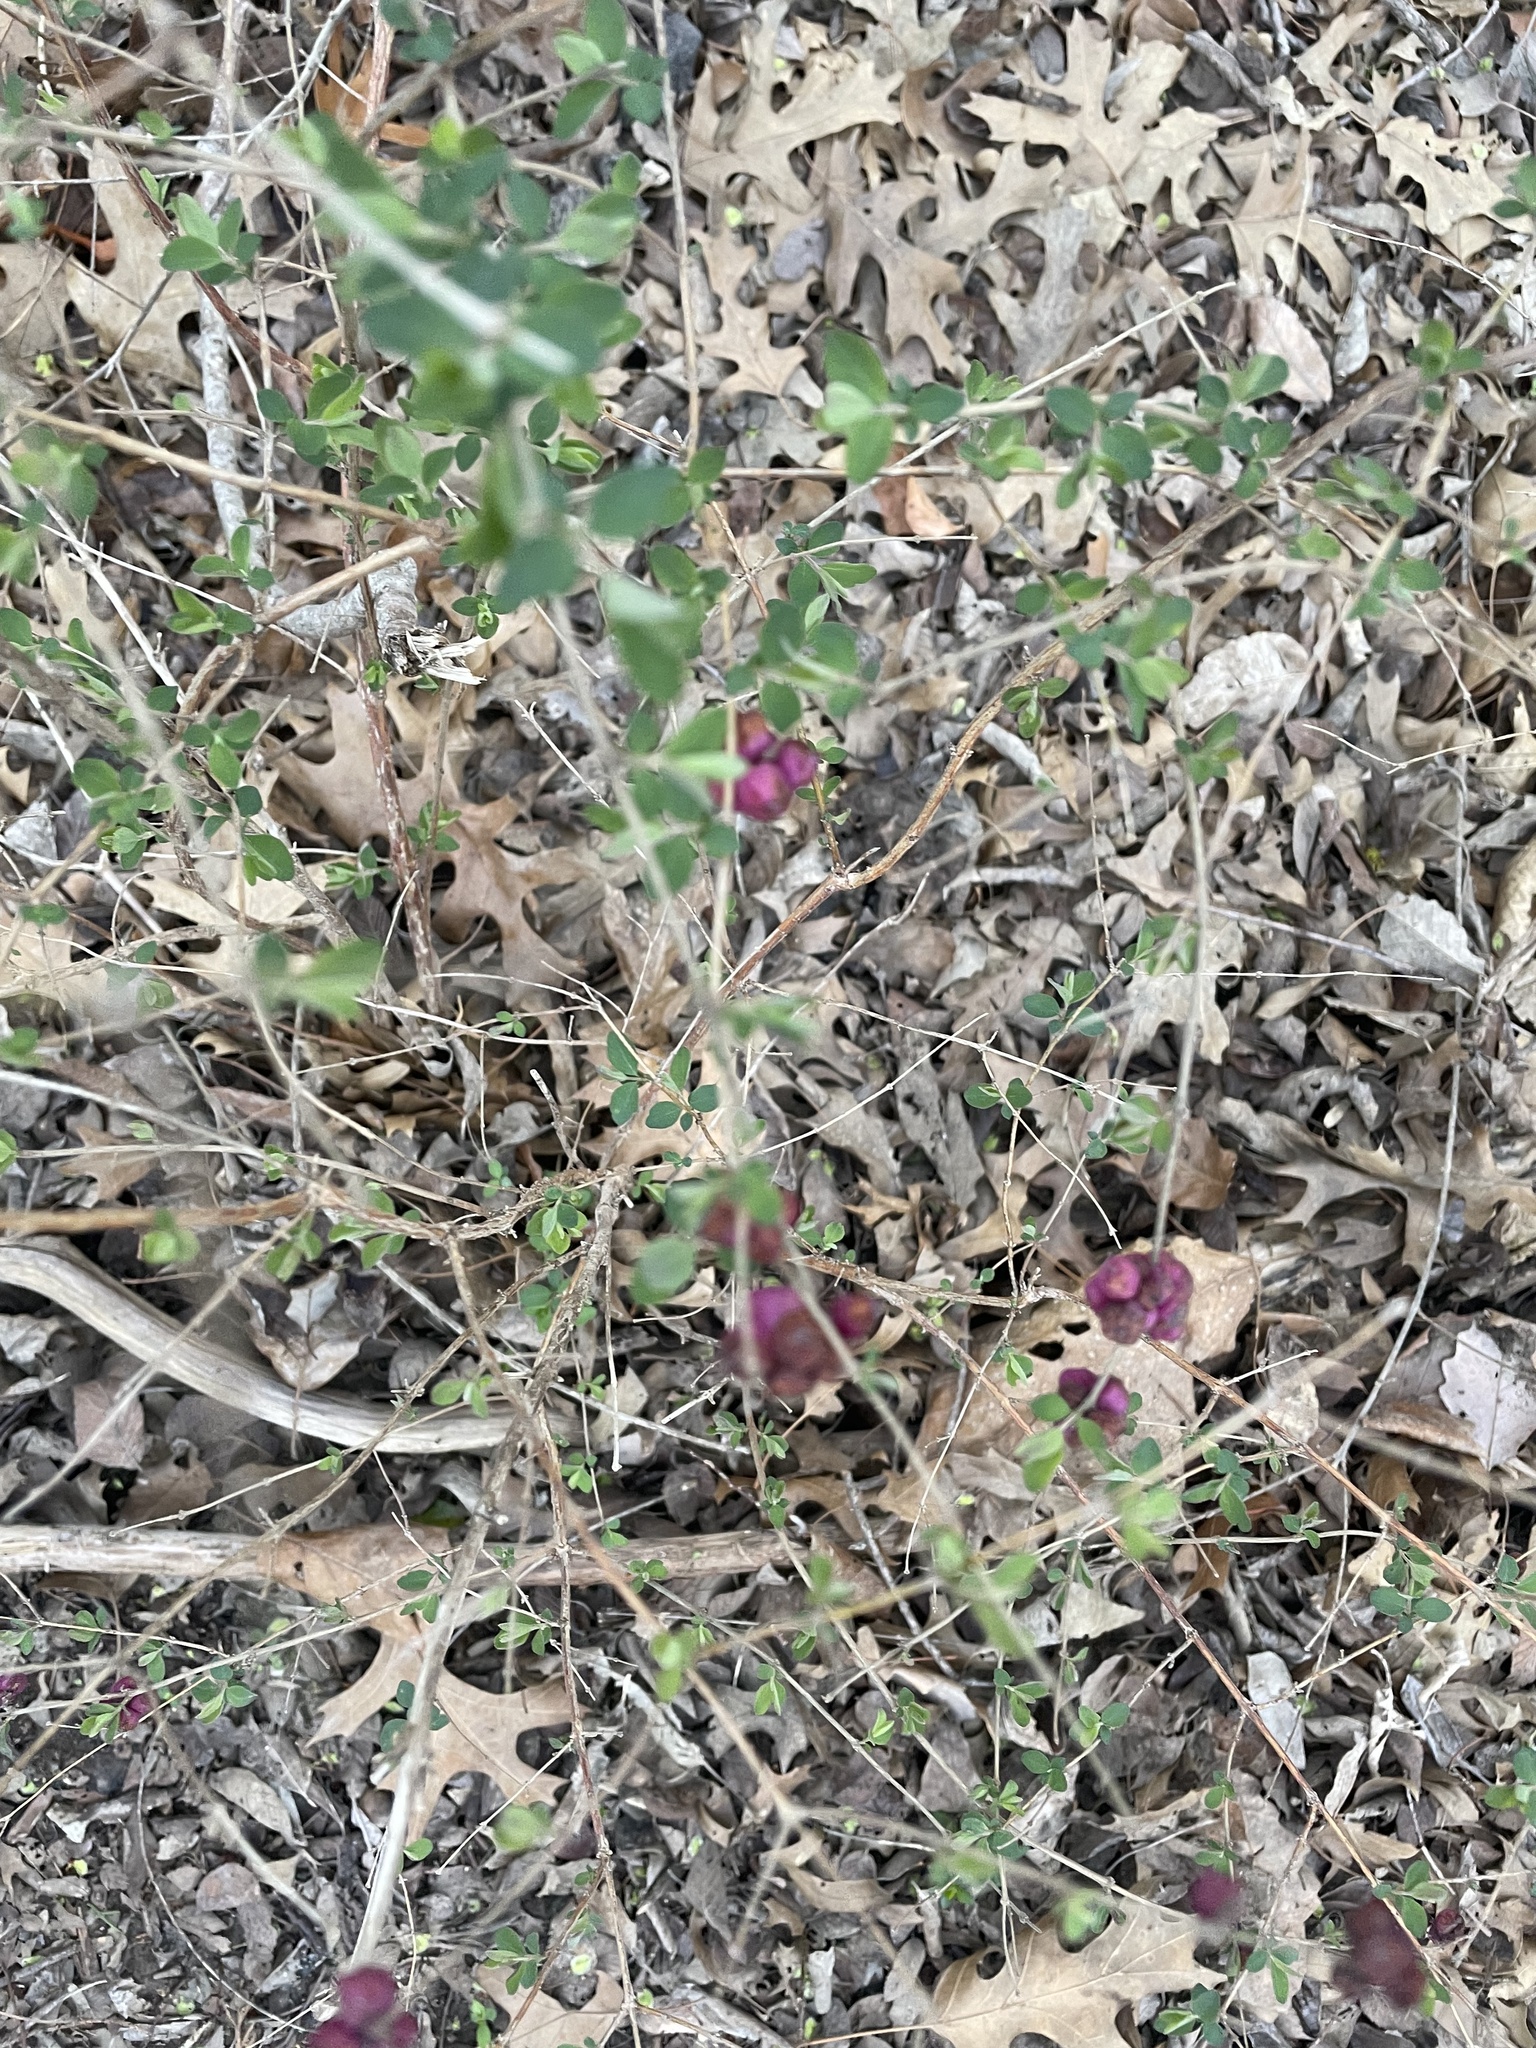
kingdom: Plantae
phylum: Tracheophyta
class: Magnoliopsida
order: Dipsacales
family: Caprifoliaceae
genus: Symphoricarpos
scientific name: Symphoricarpos orbiculatus
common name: Coralberry
